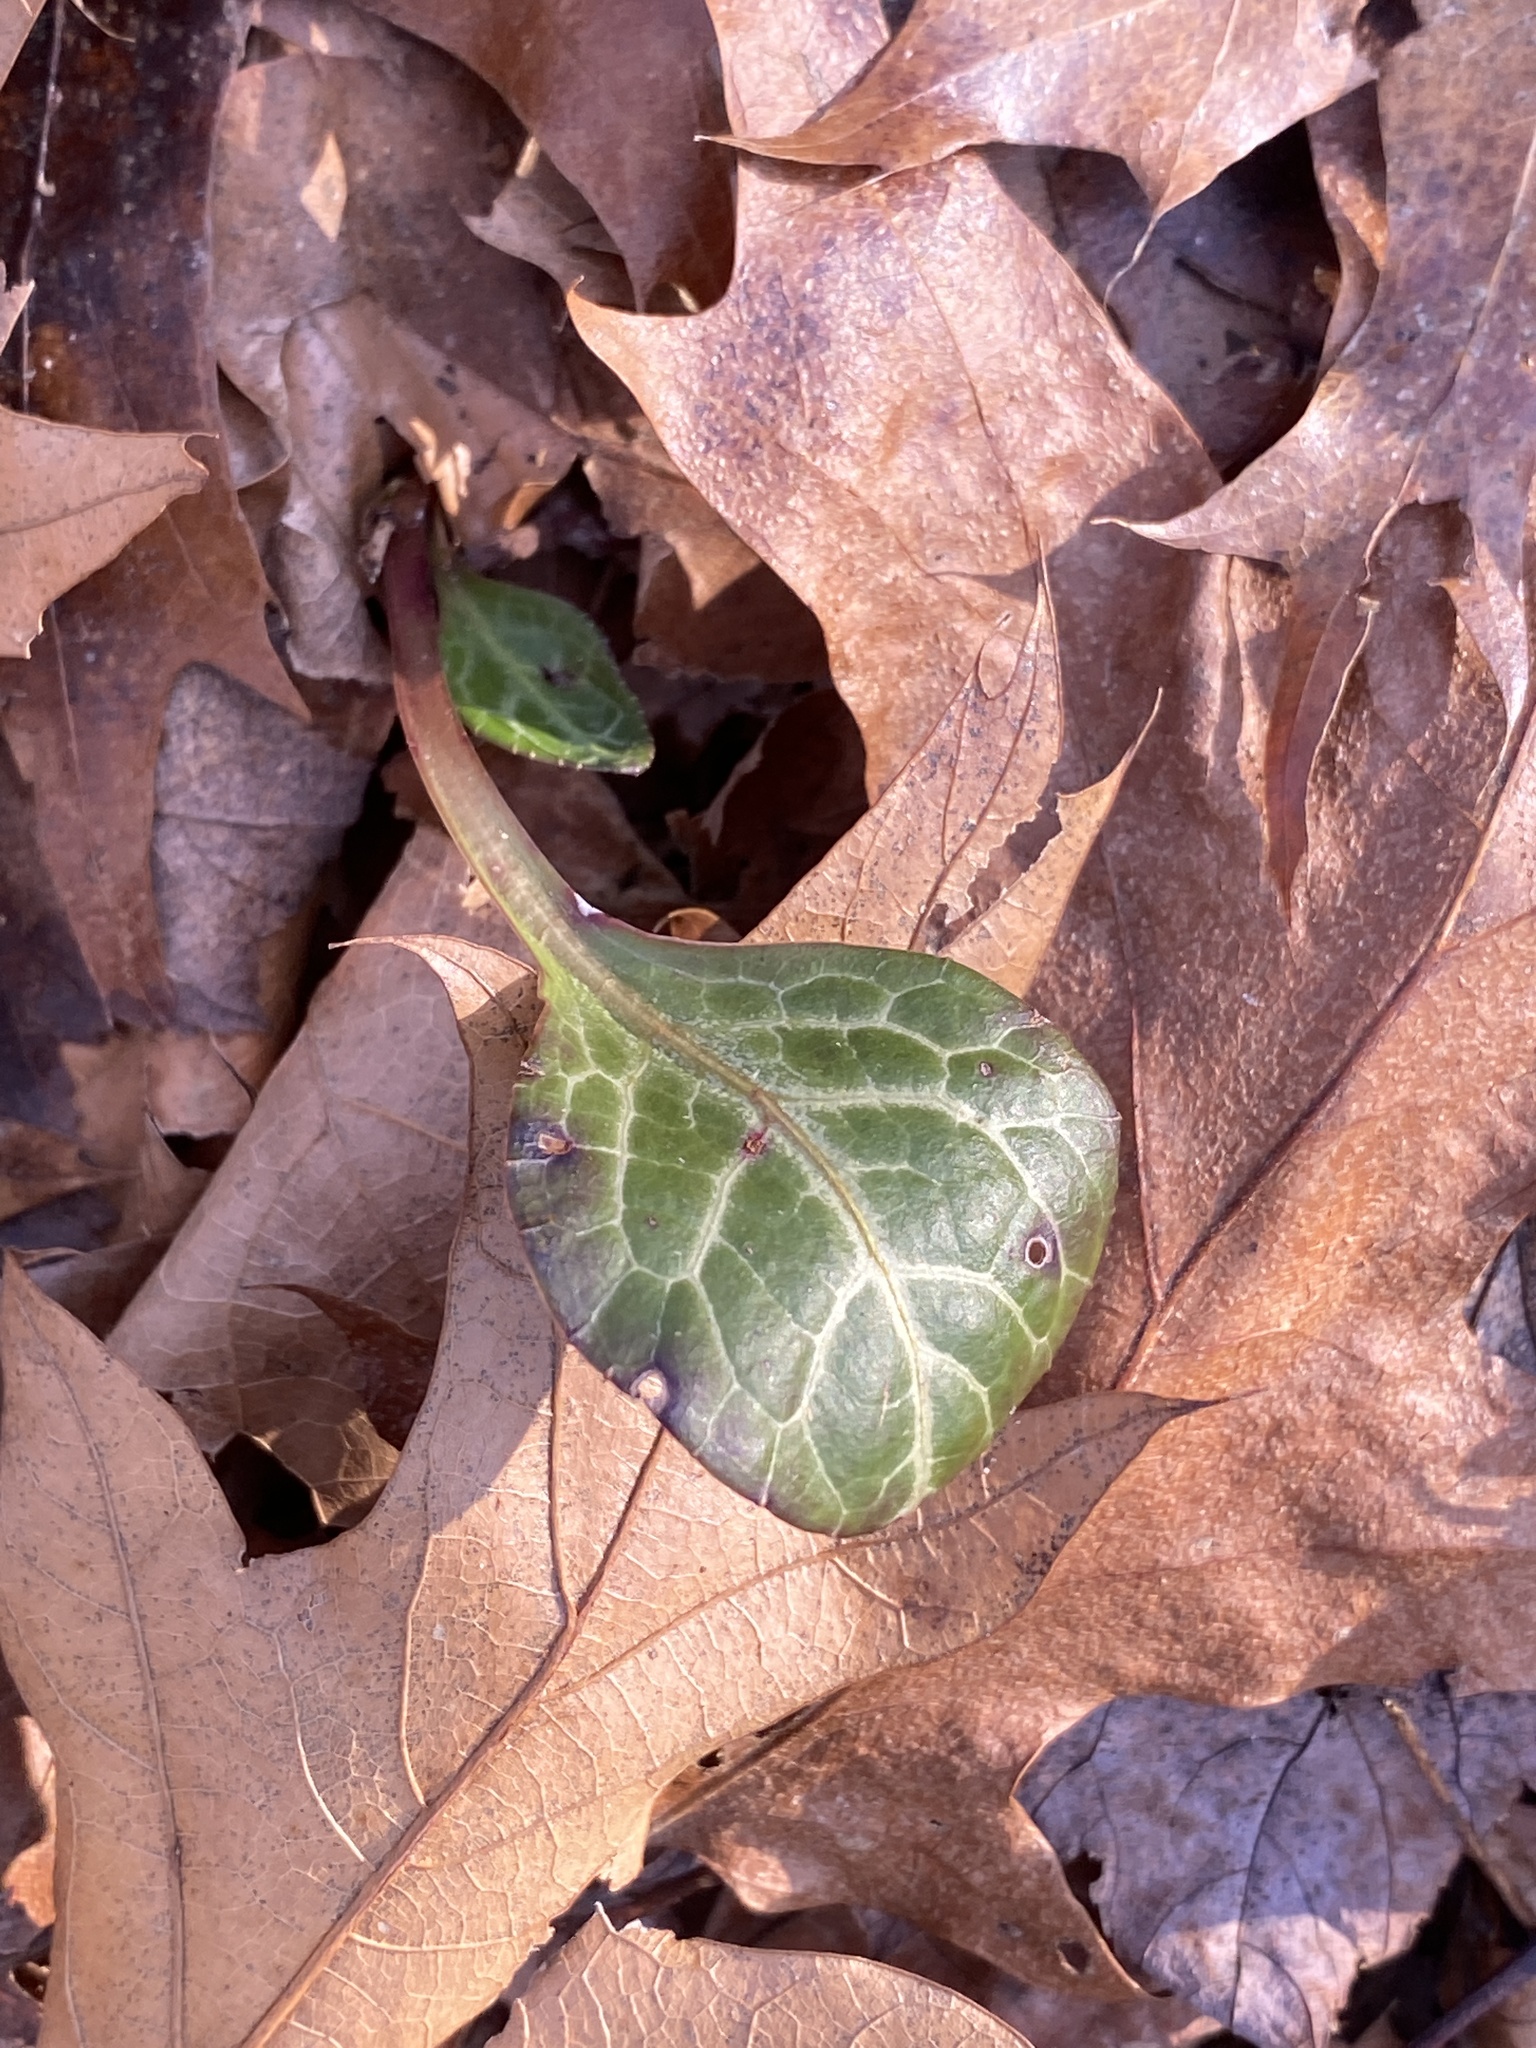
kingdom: Plantae
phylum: Tracheophyta
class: Magnoliopsida
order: Ericales
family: Ericaceae
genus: Pyrola
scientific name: Pyrola americana
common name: American wintergreen
